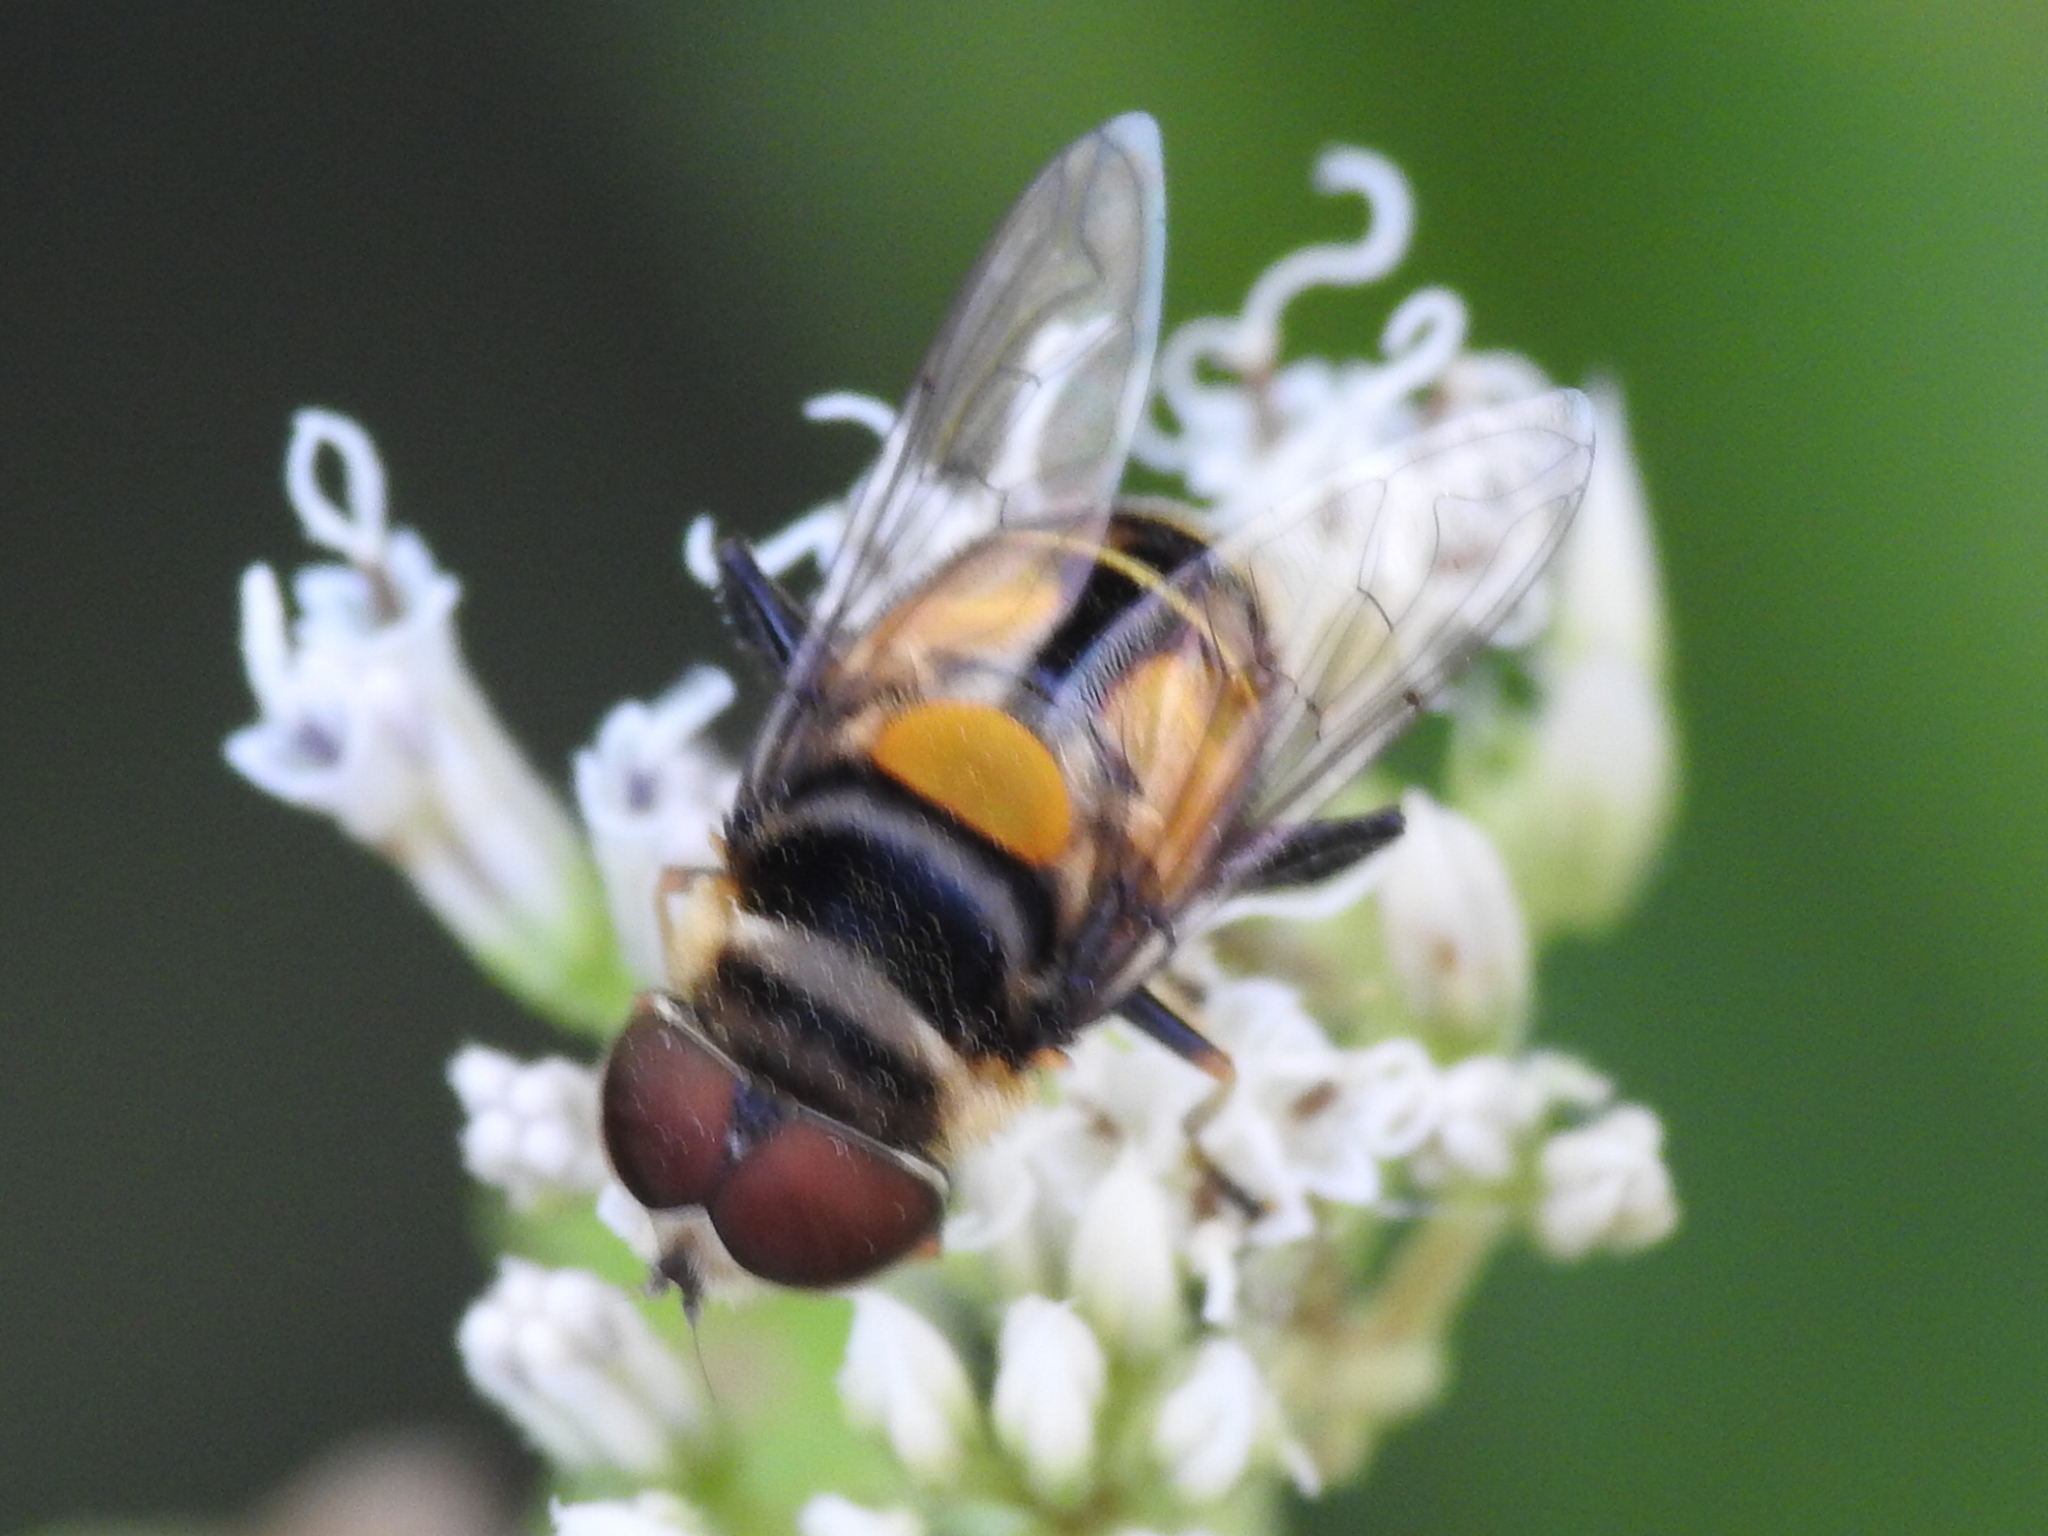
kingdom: Animalia
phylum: Arthropoda
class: Insecta
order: Diptera
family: Syrphidae
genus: Palpada
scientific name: Palpada agrorum
